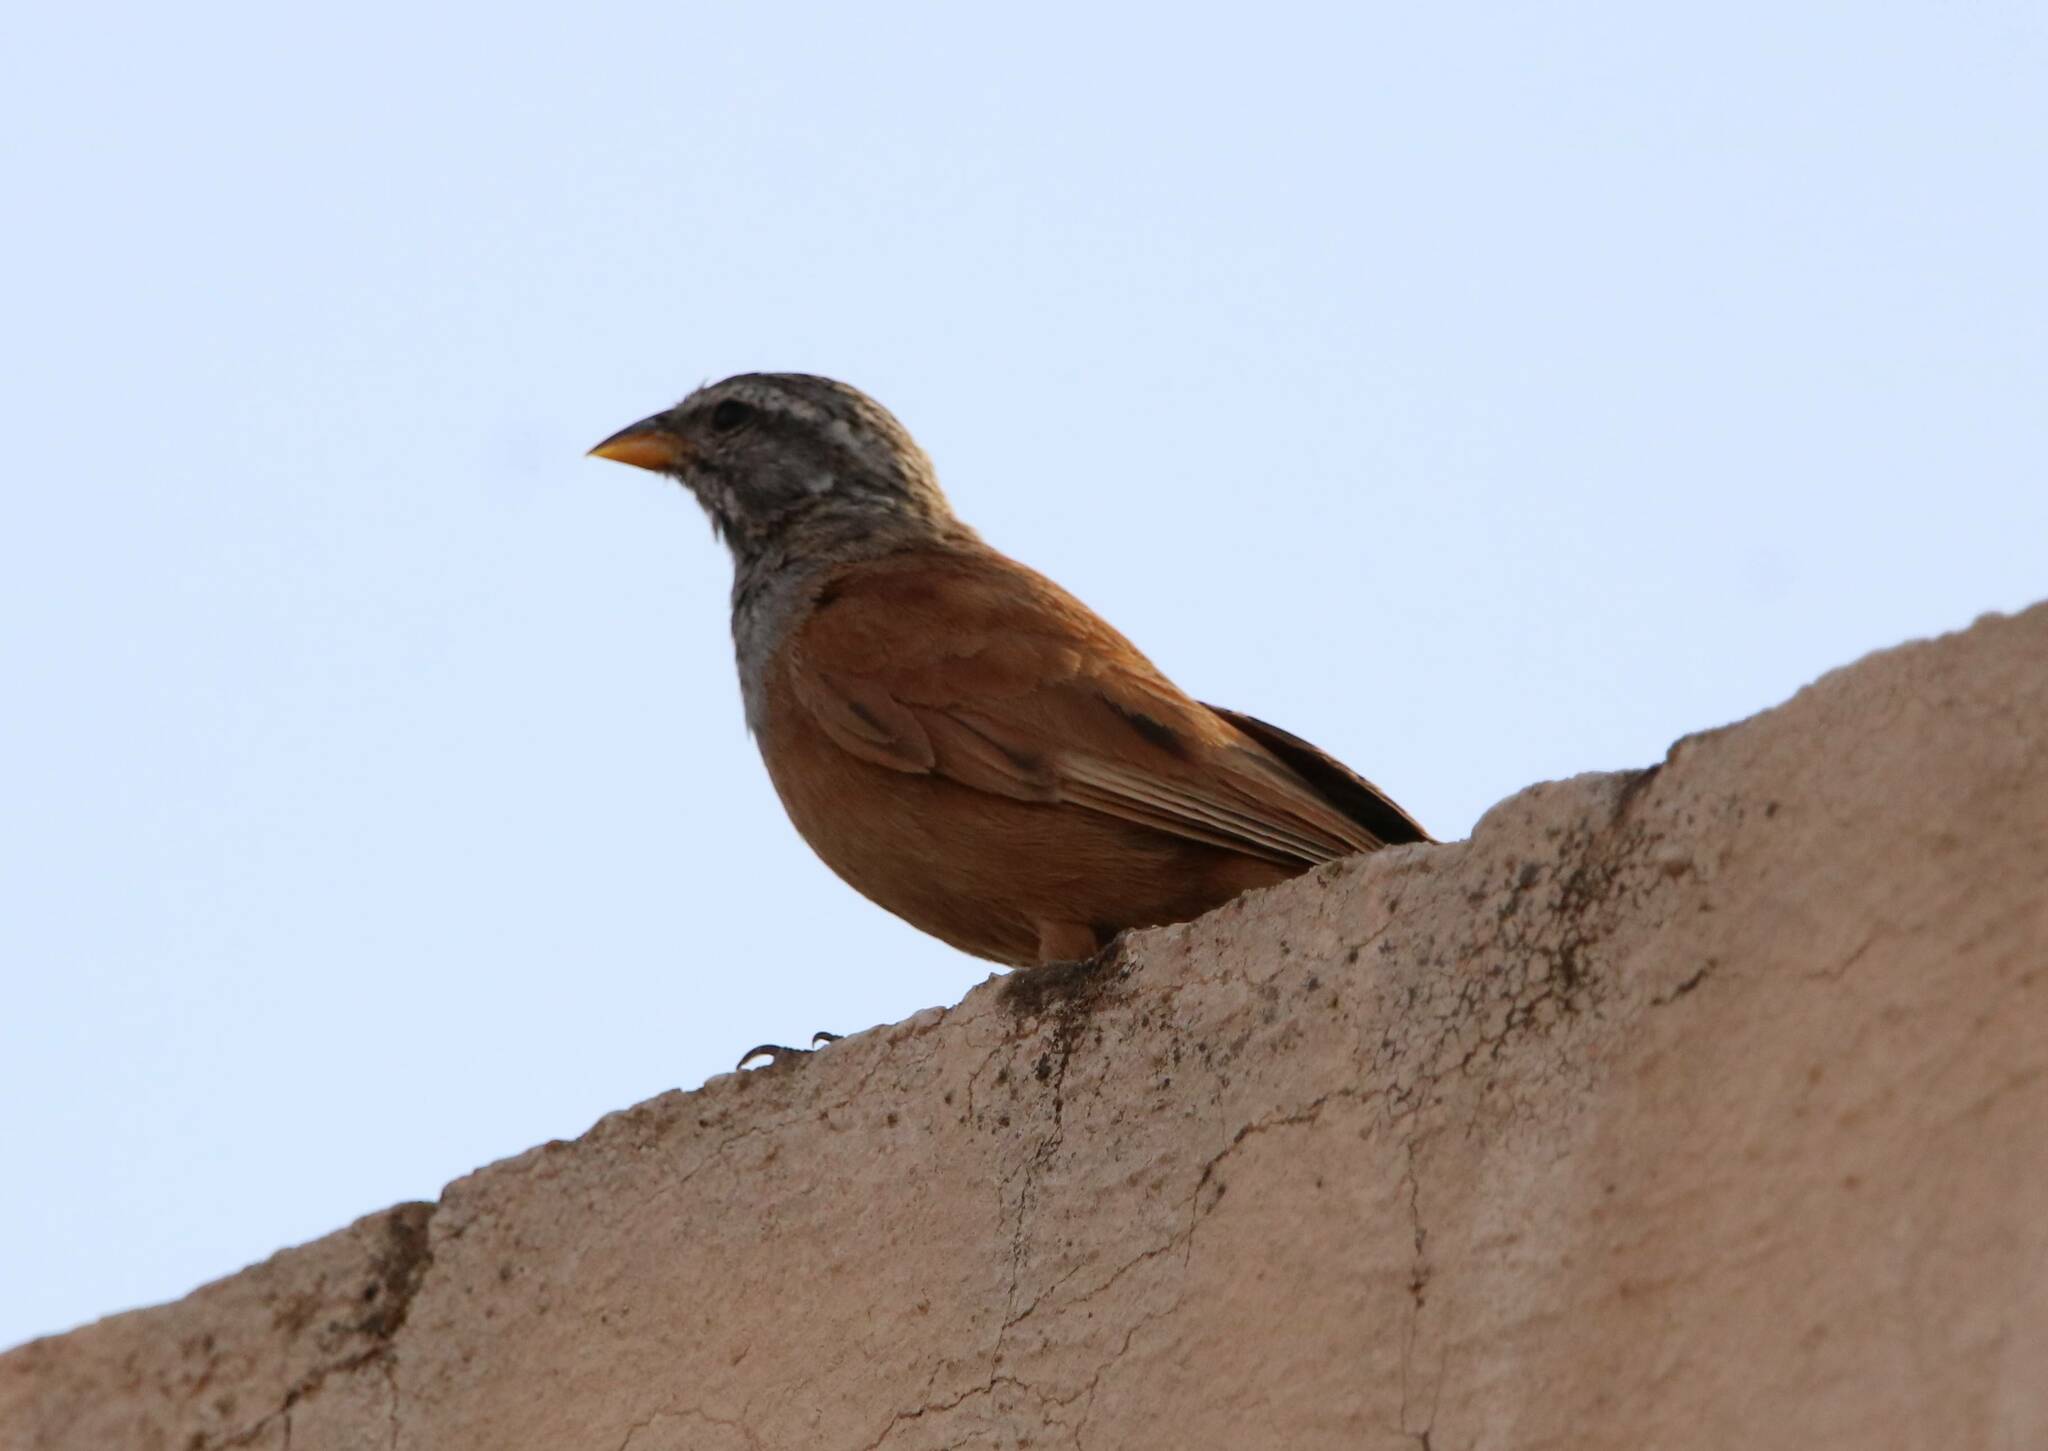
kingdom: Animalia
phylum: Chordata
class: Aves
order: Passeriformes
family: Emberizidae
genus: Emberiza
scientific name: Emberiza sahari
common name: House bunting
